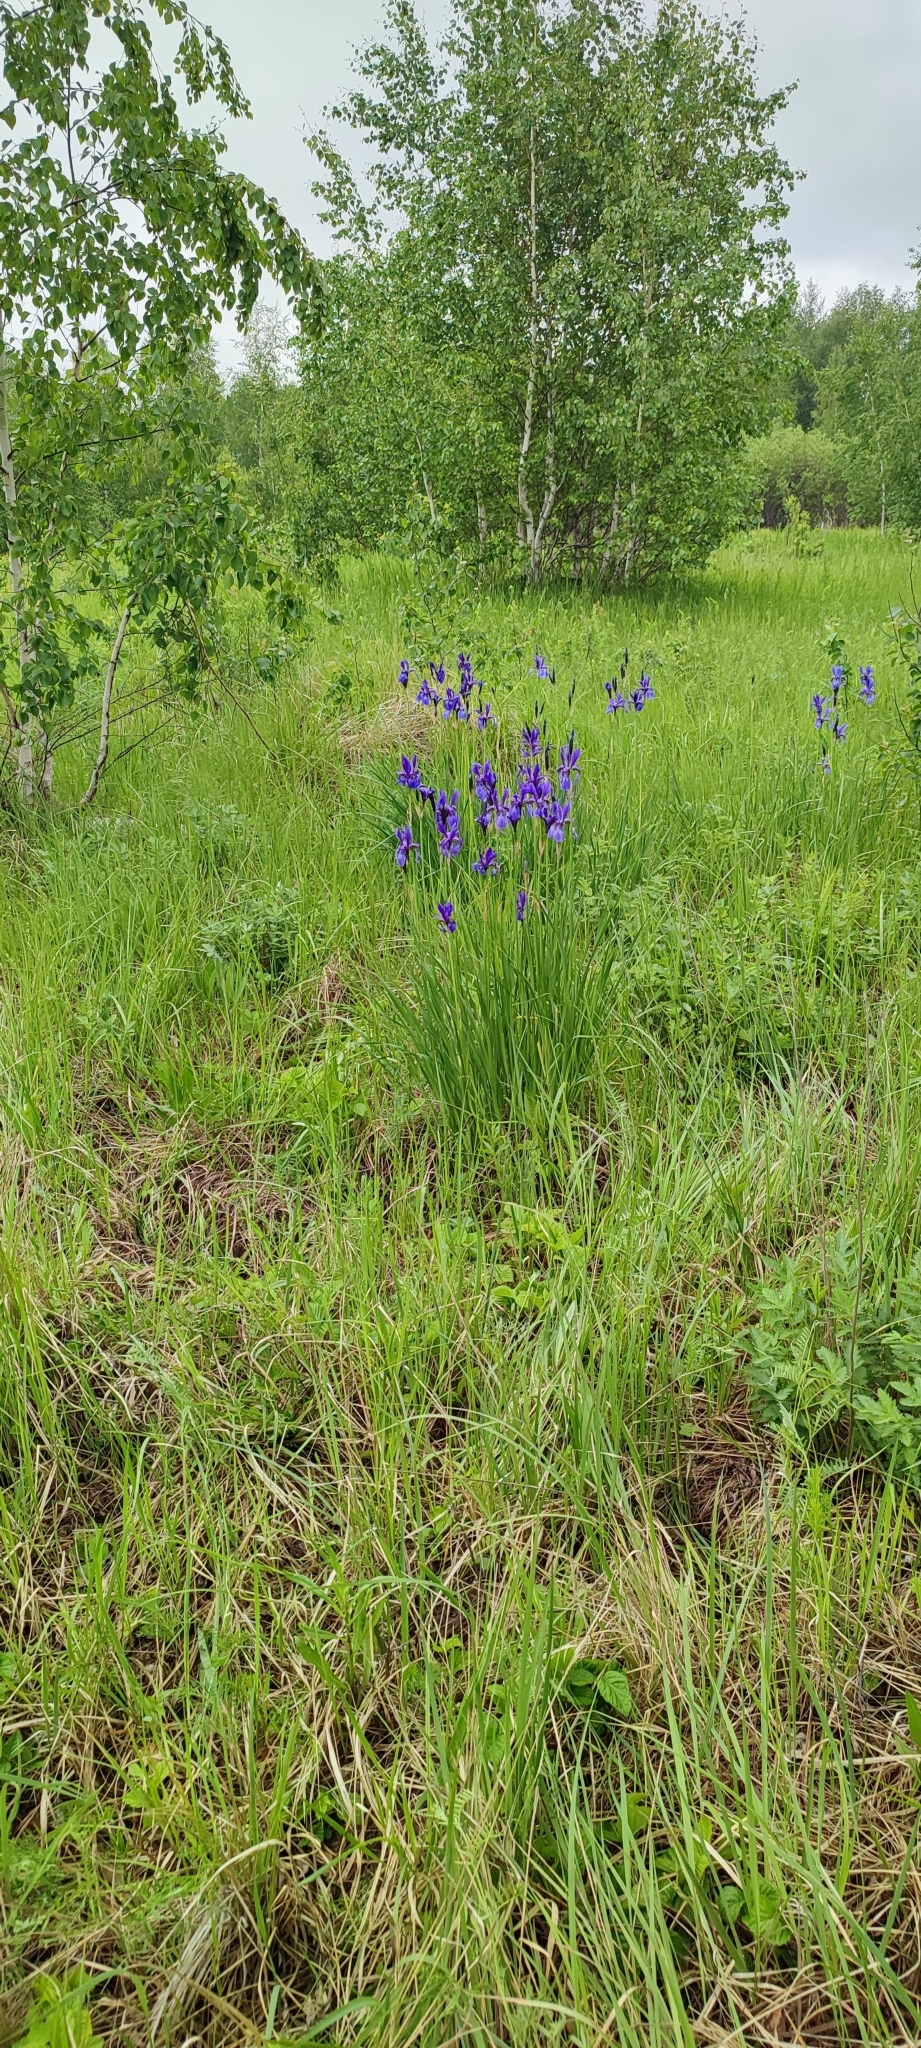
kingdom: Plantae
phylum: Tracheophyta
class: Liliopsida
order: Asparagales
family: Iridaceae
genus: Iris
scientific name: Iris sibirica
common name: Siberian iris
